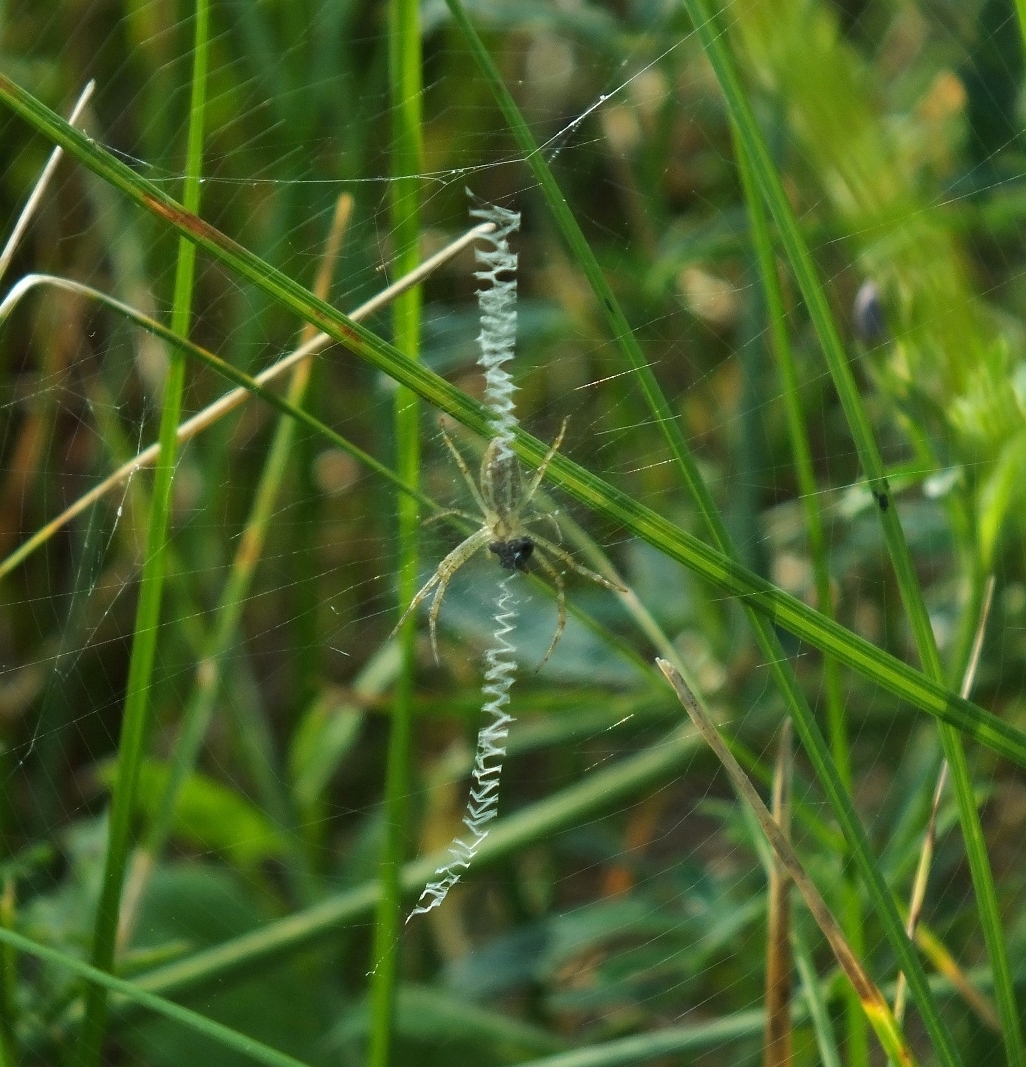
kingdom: Animalia
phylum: Arthropoda
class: Arachnida
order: Araneae
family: Araneidae
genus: Argiope
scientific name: Argiope bruennichi
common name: Wasp spider
